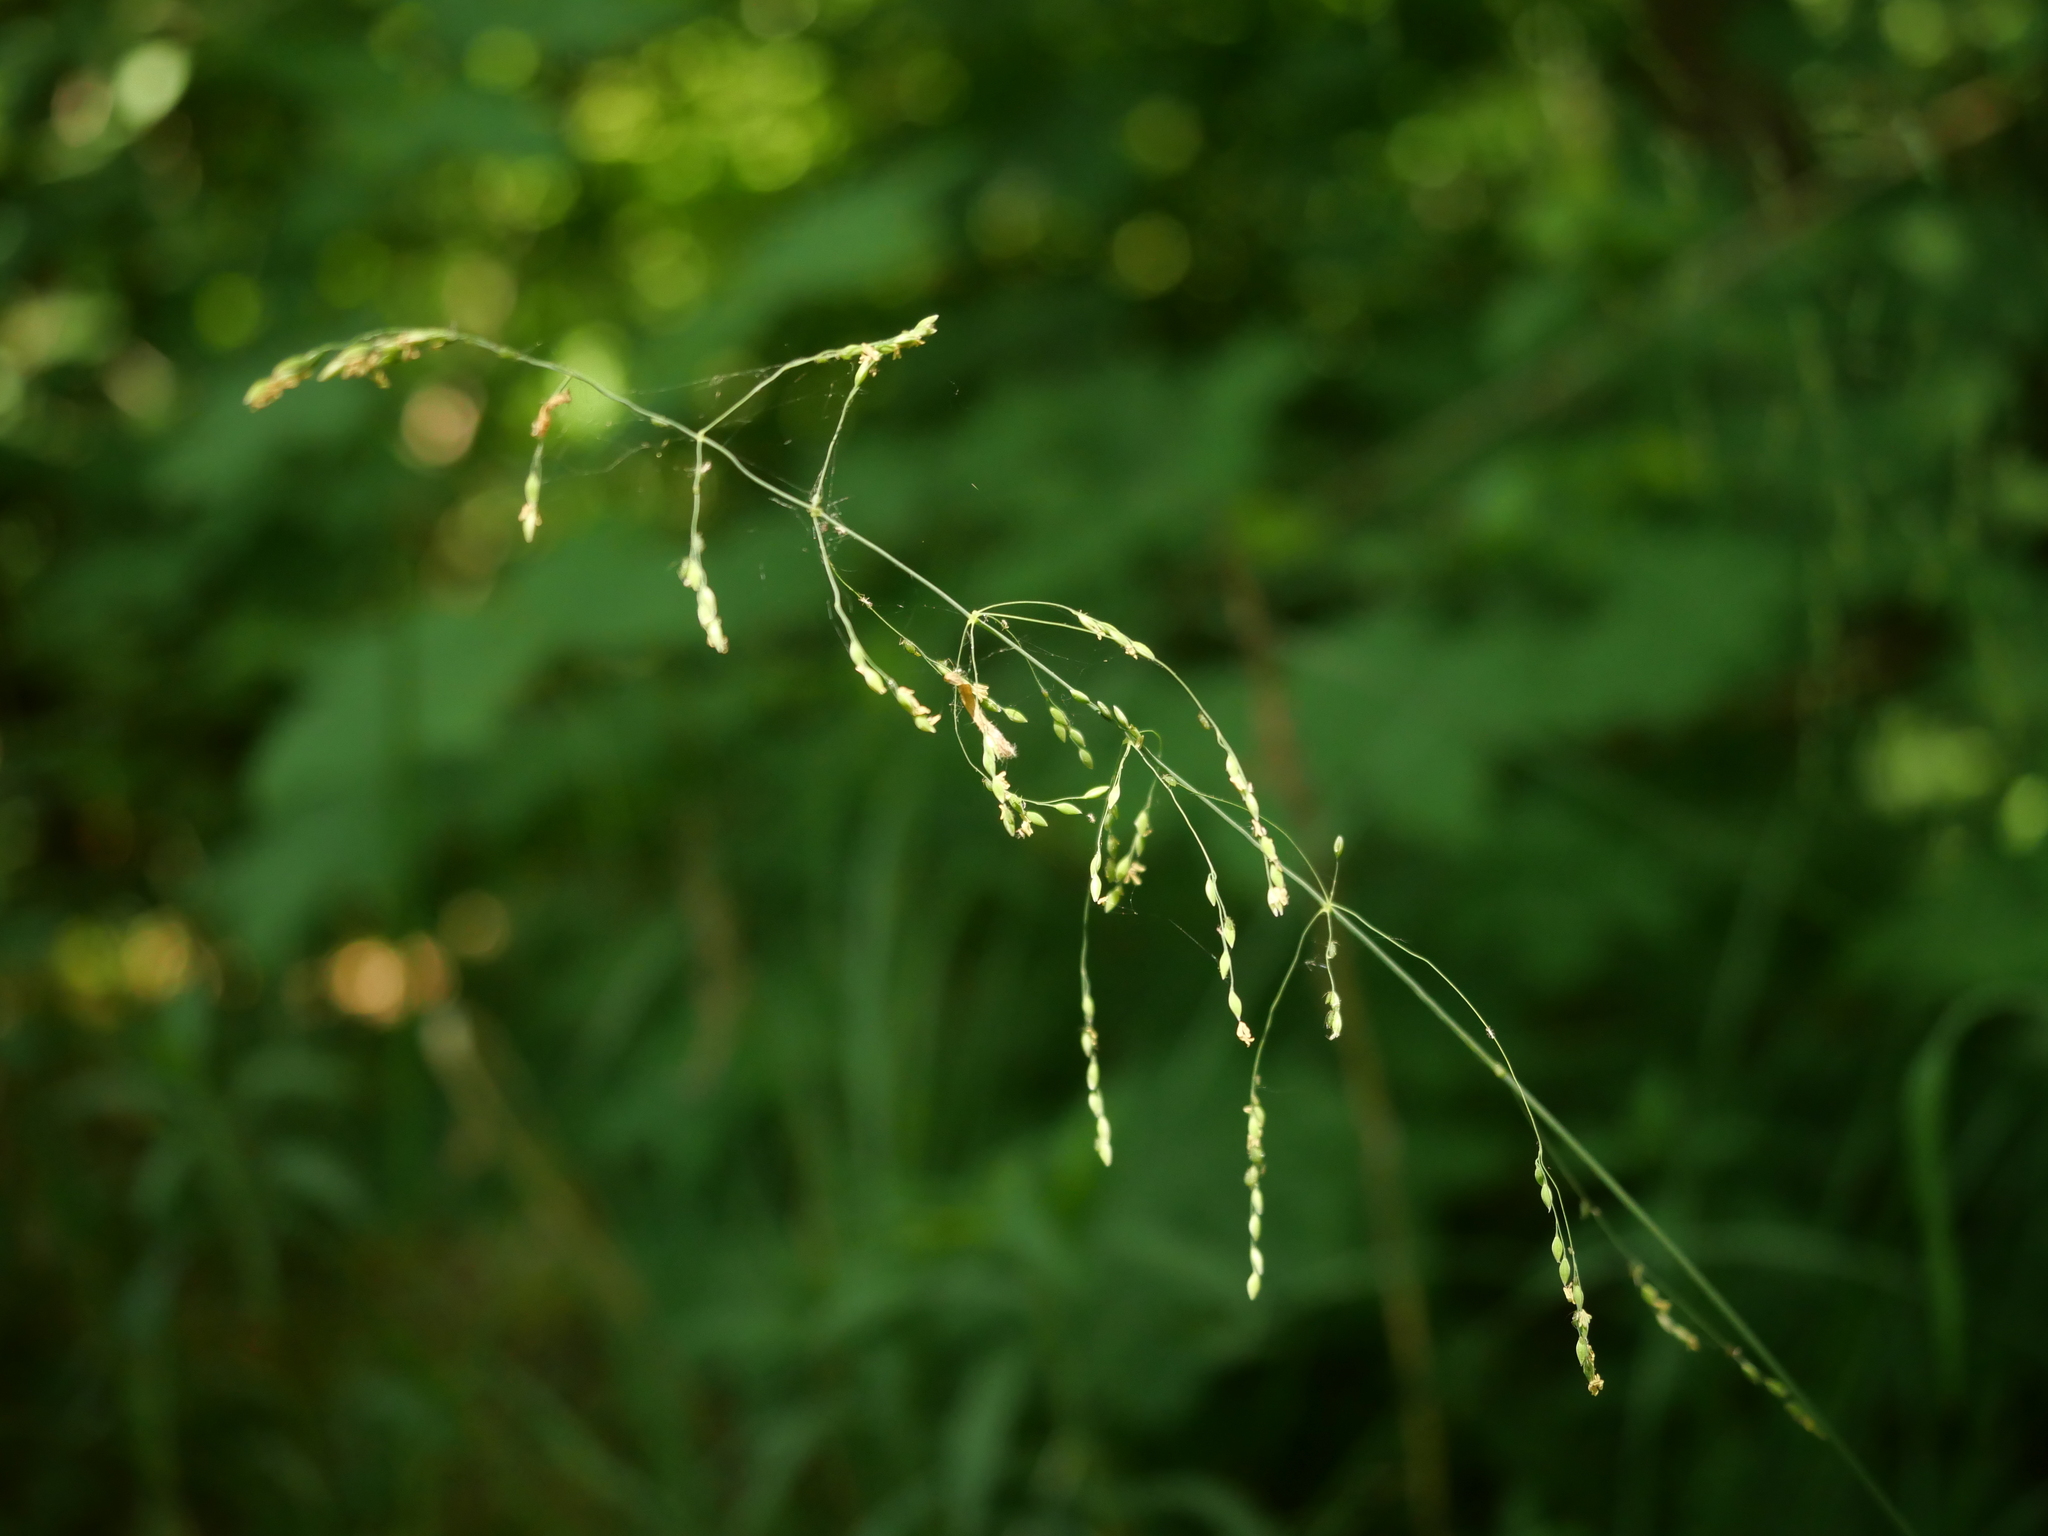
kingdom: Plantae
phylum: Tracheophyta
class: Liliopsida
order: Poales
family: Poaceae
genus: Milium
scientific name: Milium effusum
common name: Wood millet
